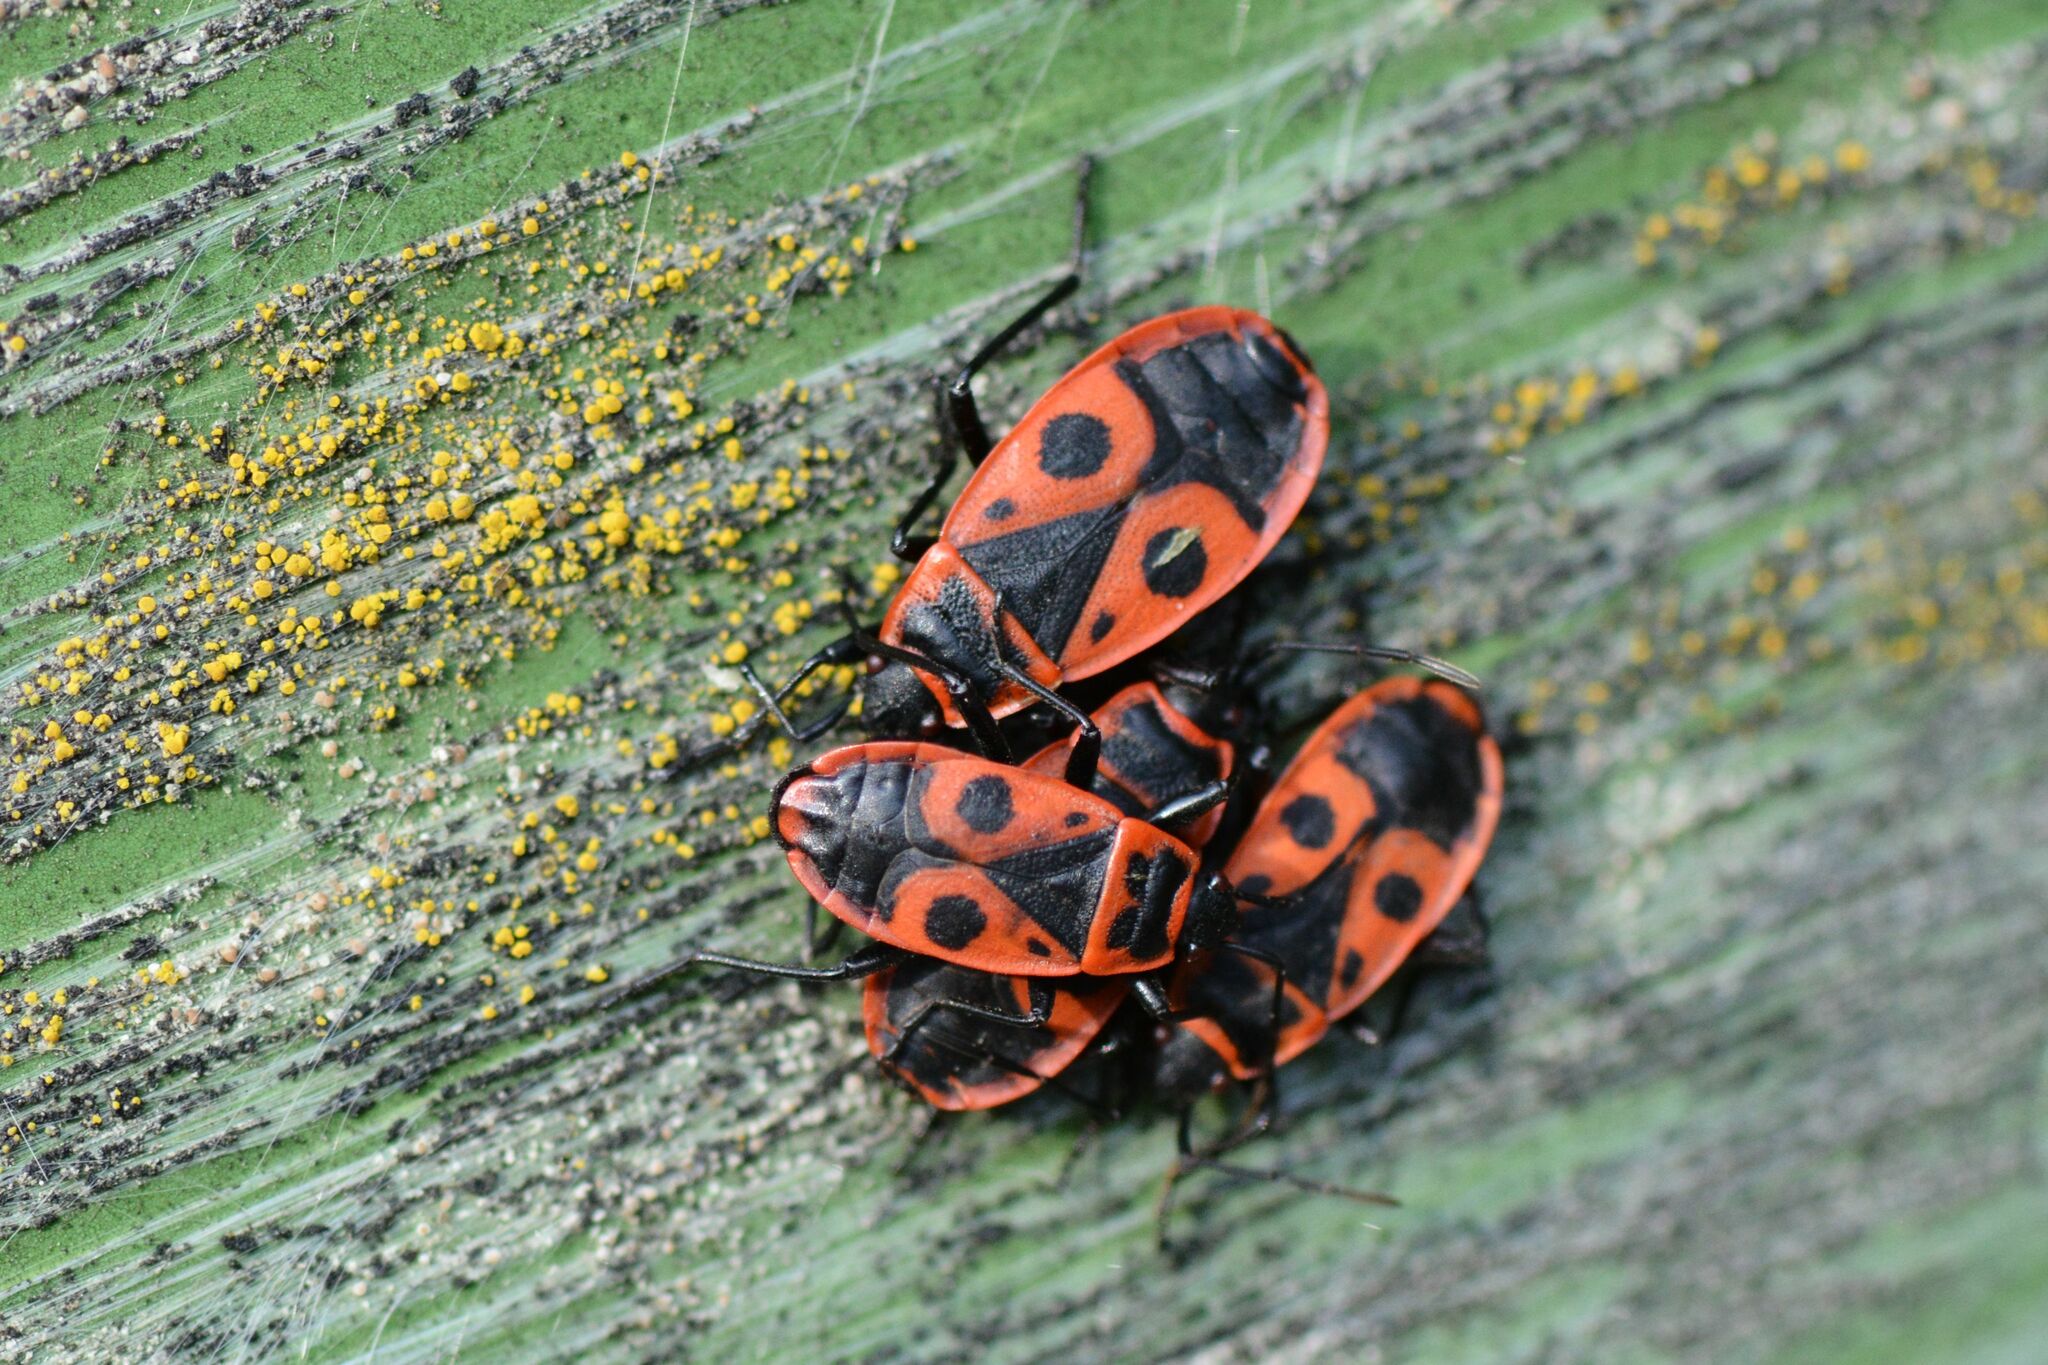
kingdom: Animalia
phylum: Arthropoda
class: Insecta
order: Hemiptera
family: Pyrrhocoridae
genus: Pyrrhocoris
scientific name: Pyrrhocoris apterus
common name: Firebug
